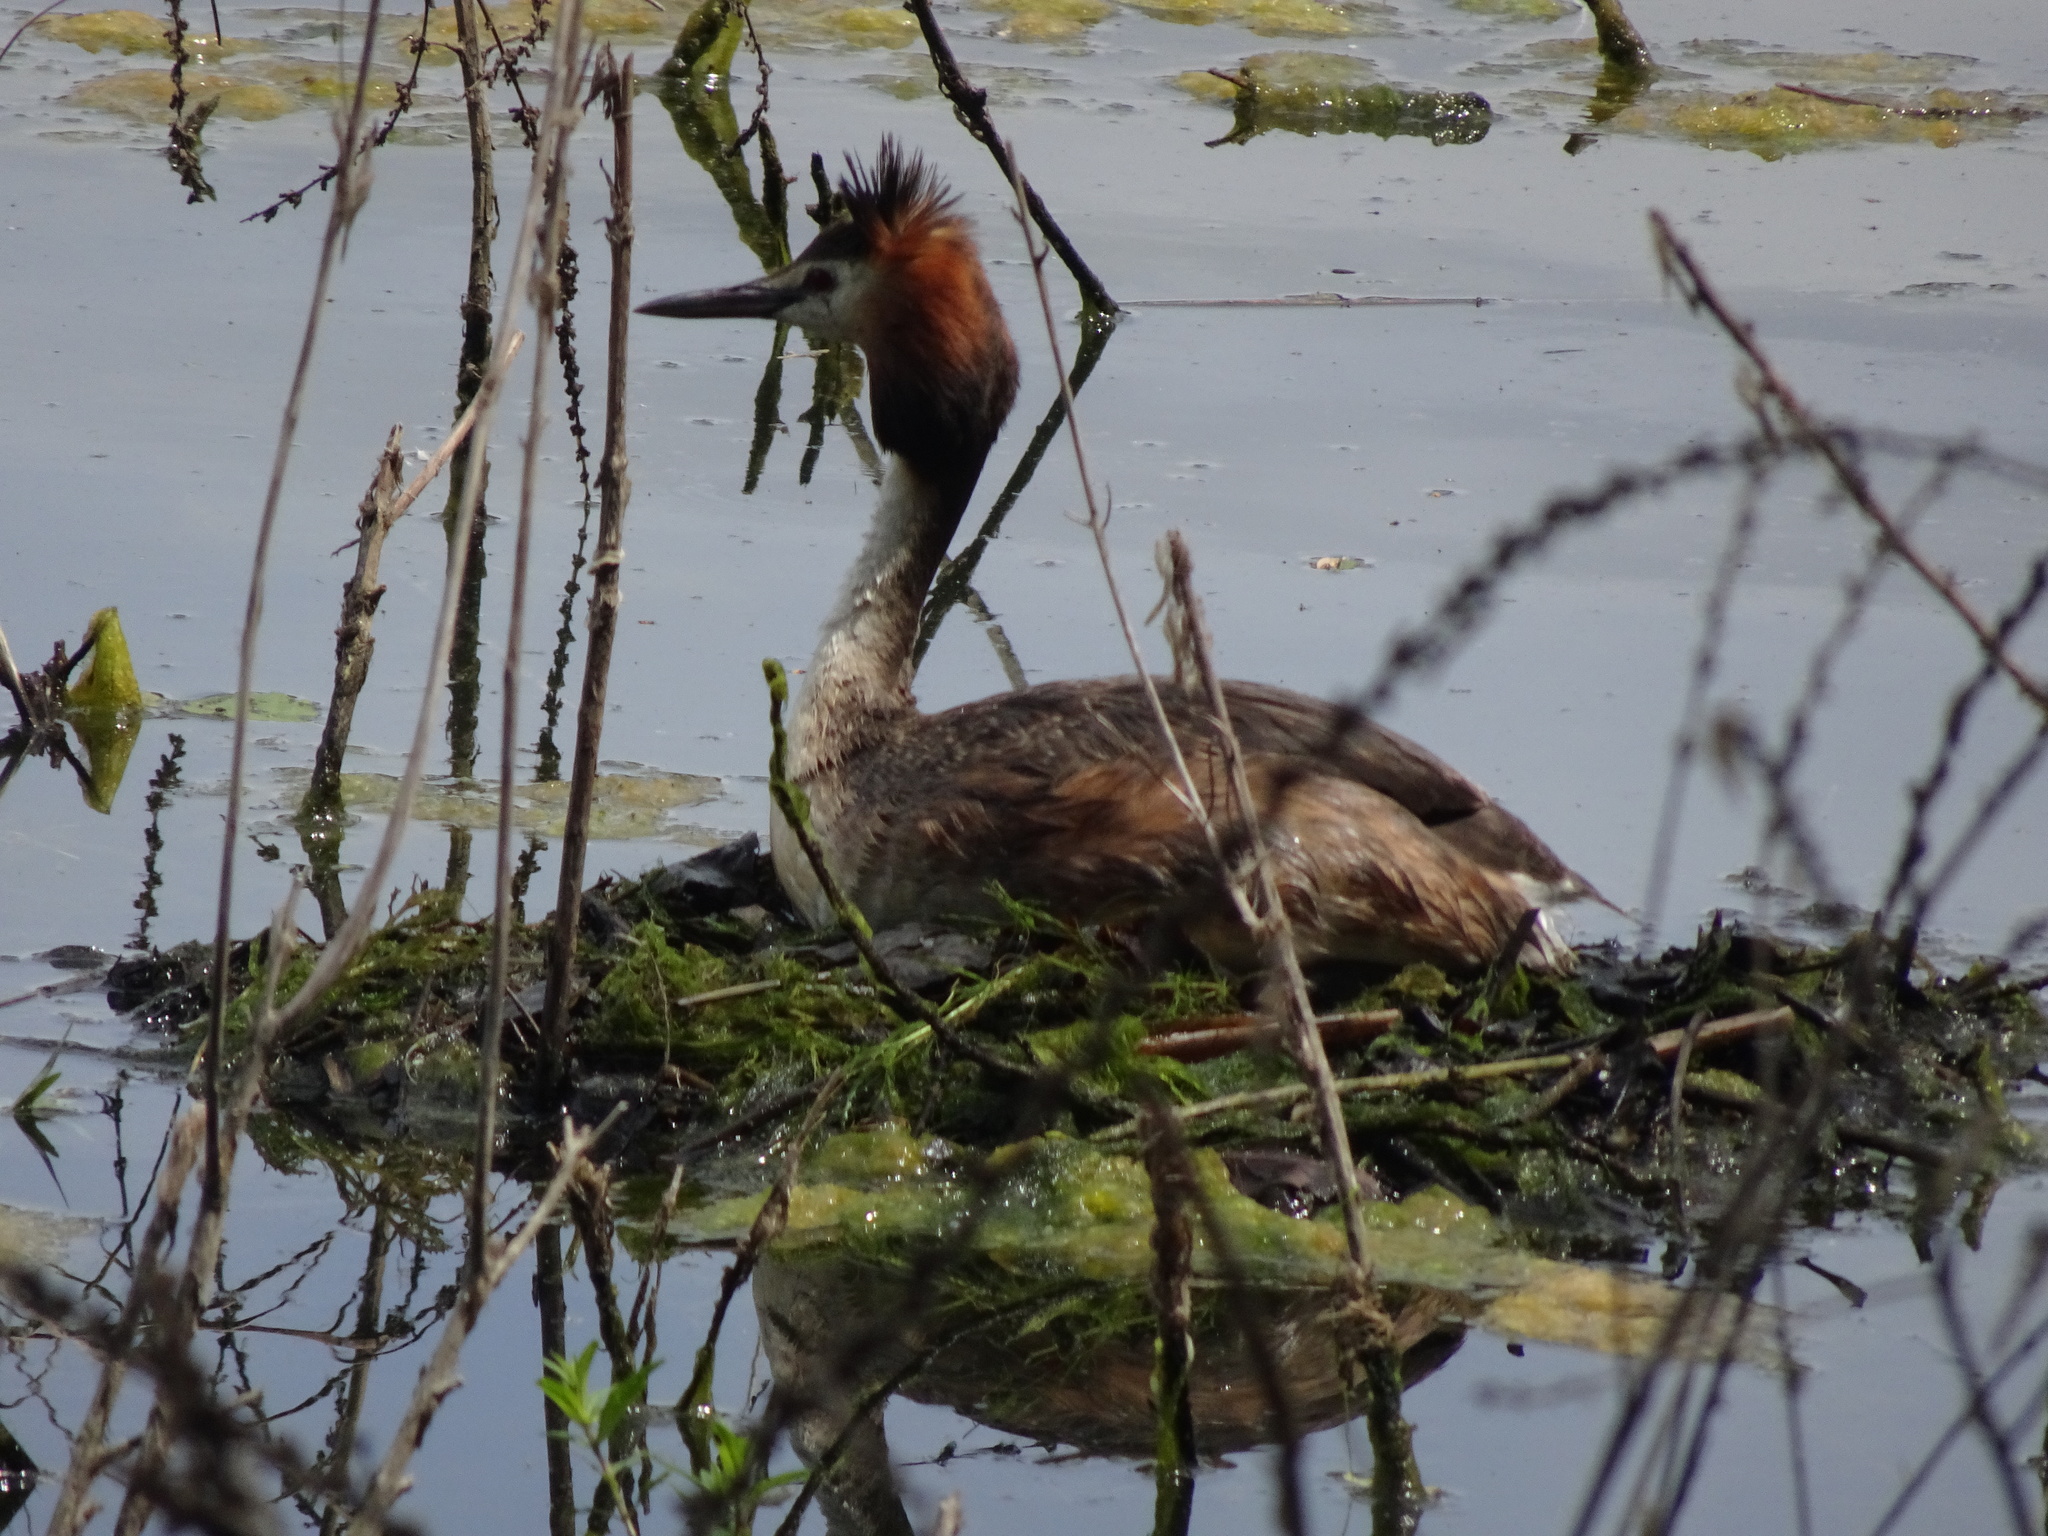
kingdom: Animalia
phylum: Chordata
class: Aves
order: Podicipediformes
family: Podicipedidae
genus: Podiceps
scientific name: Podiceps cristatus
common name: Great crested grebe
